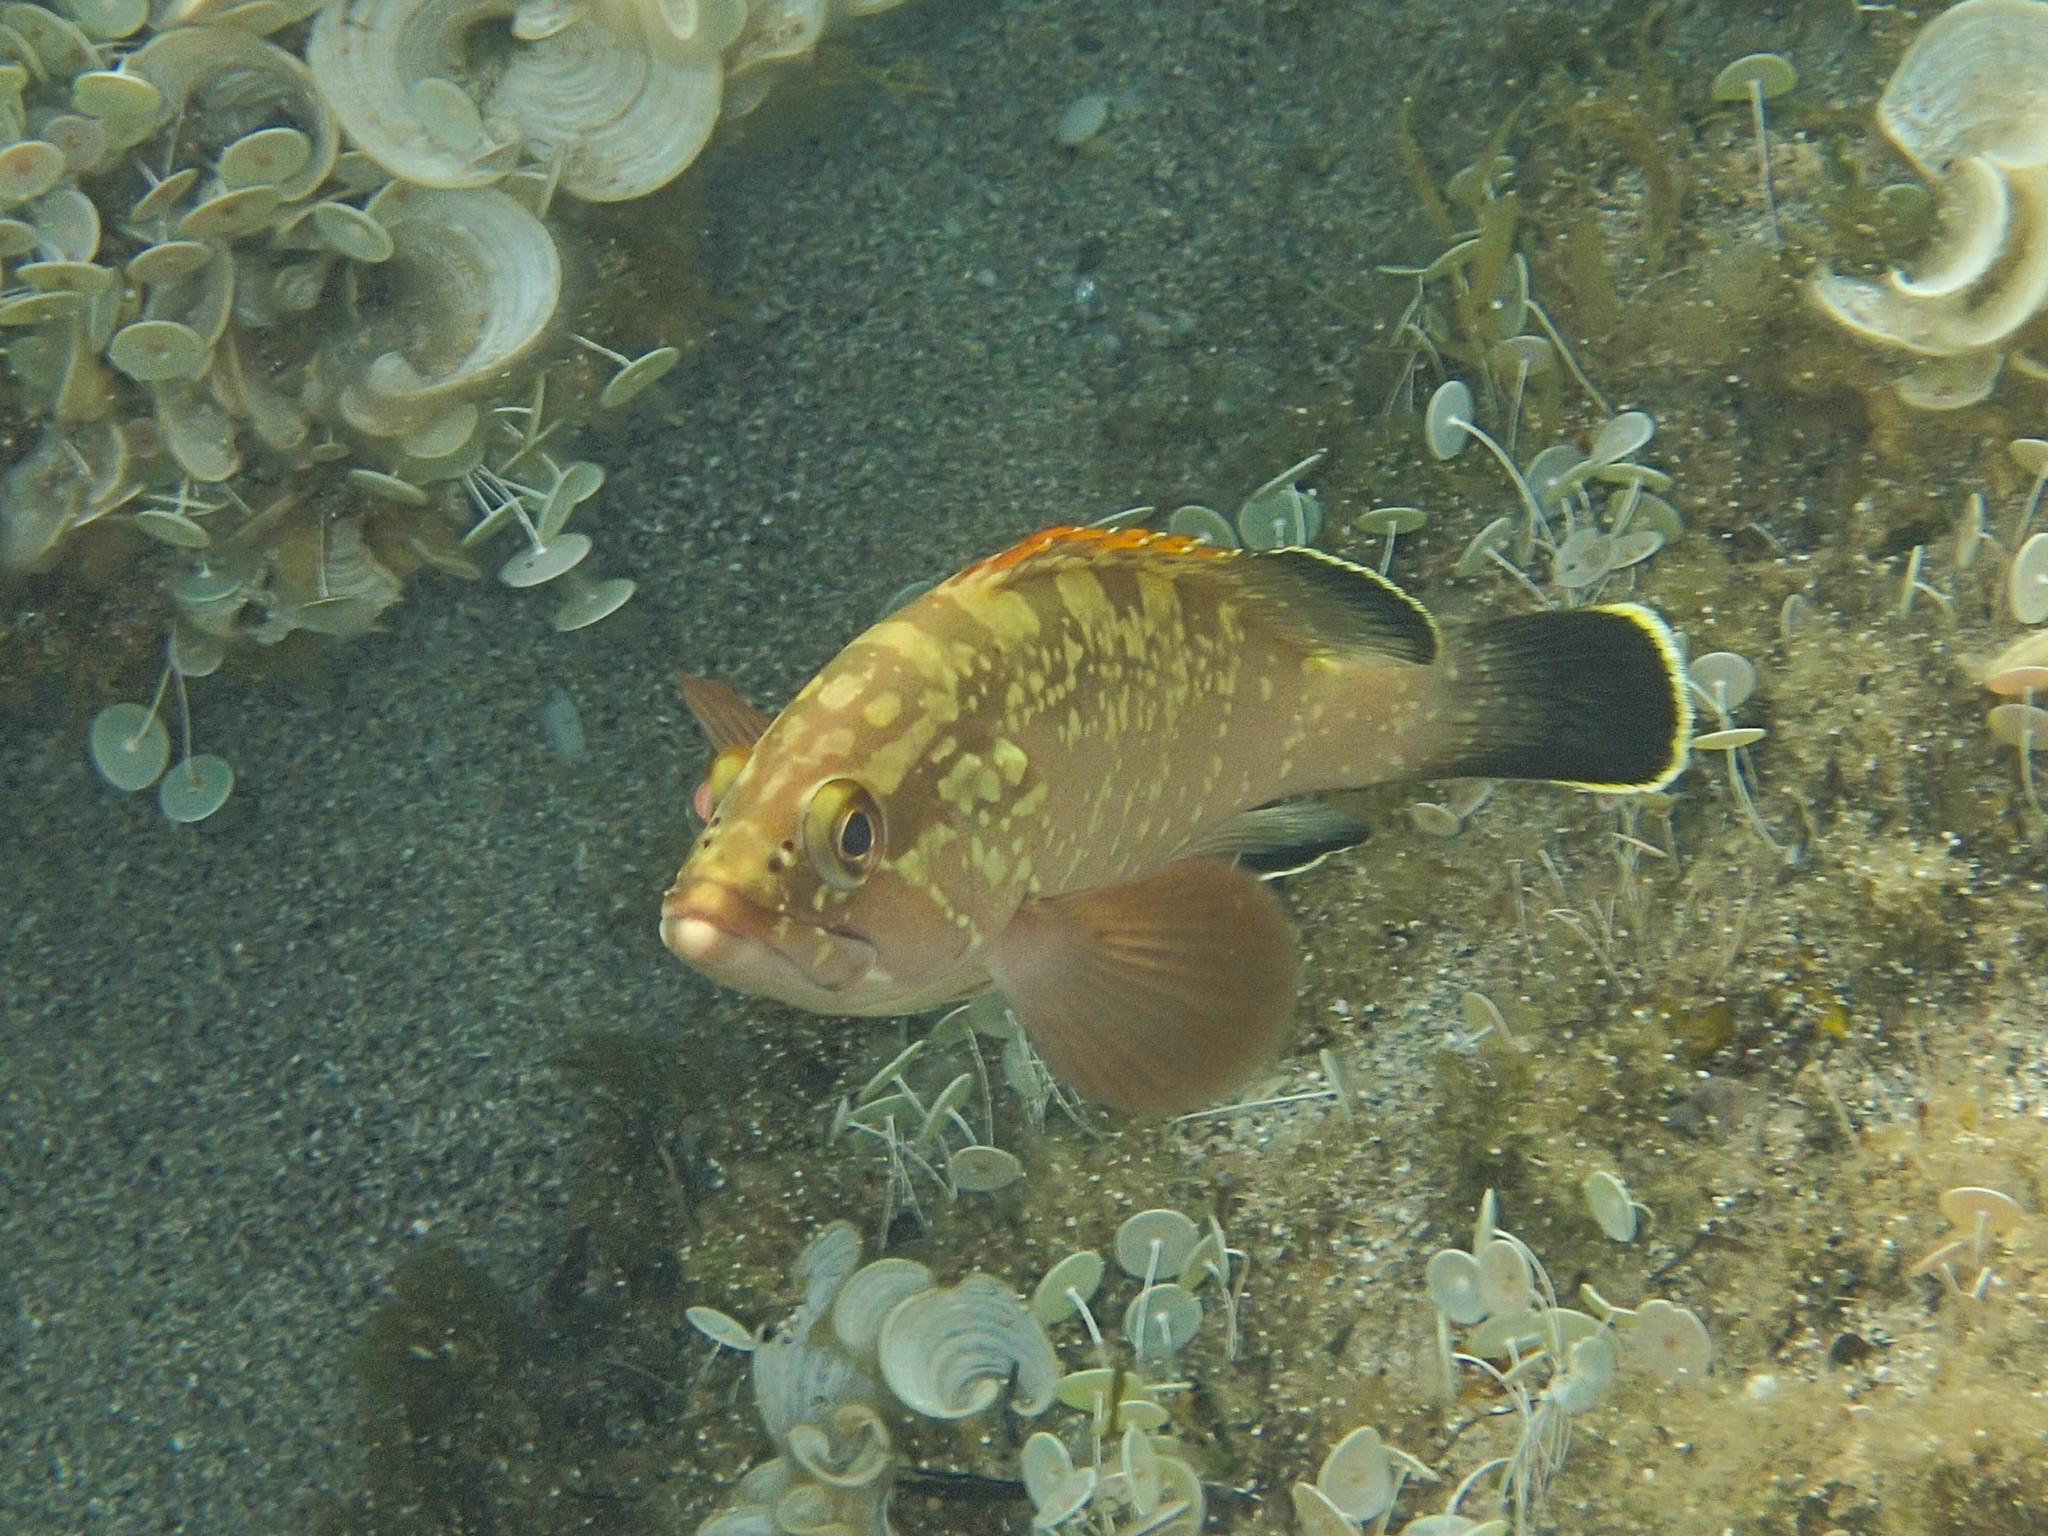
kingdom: Animalia
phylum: Chordata
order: Perciformes
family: Serranidae
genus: Epinephelus
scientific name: Epinephelus marginatus
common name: Dusky grouper
